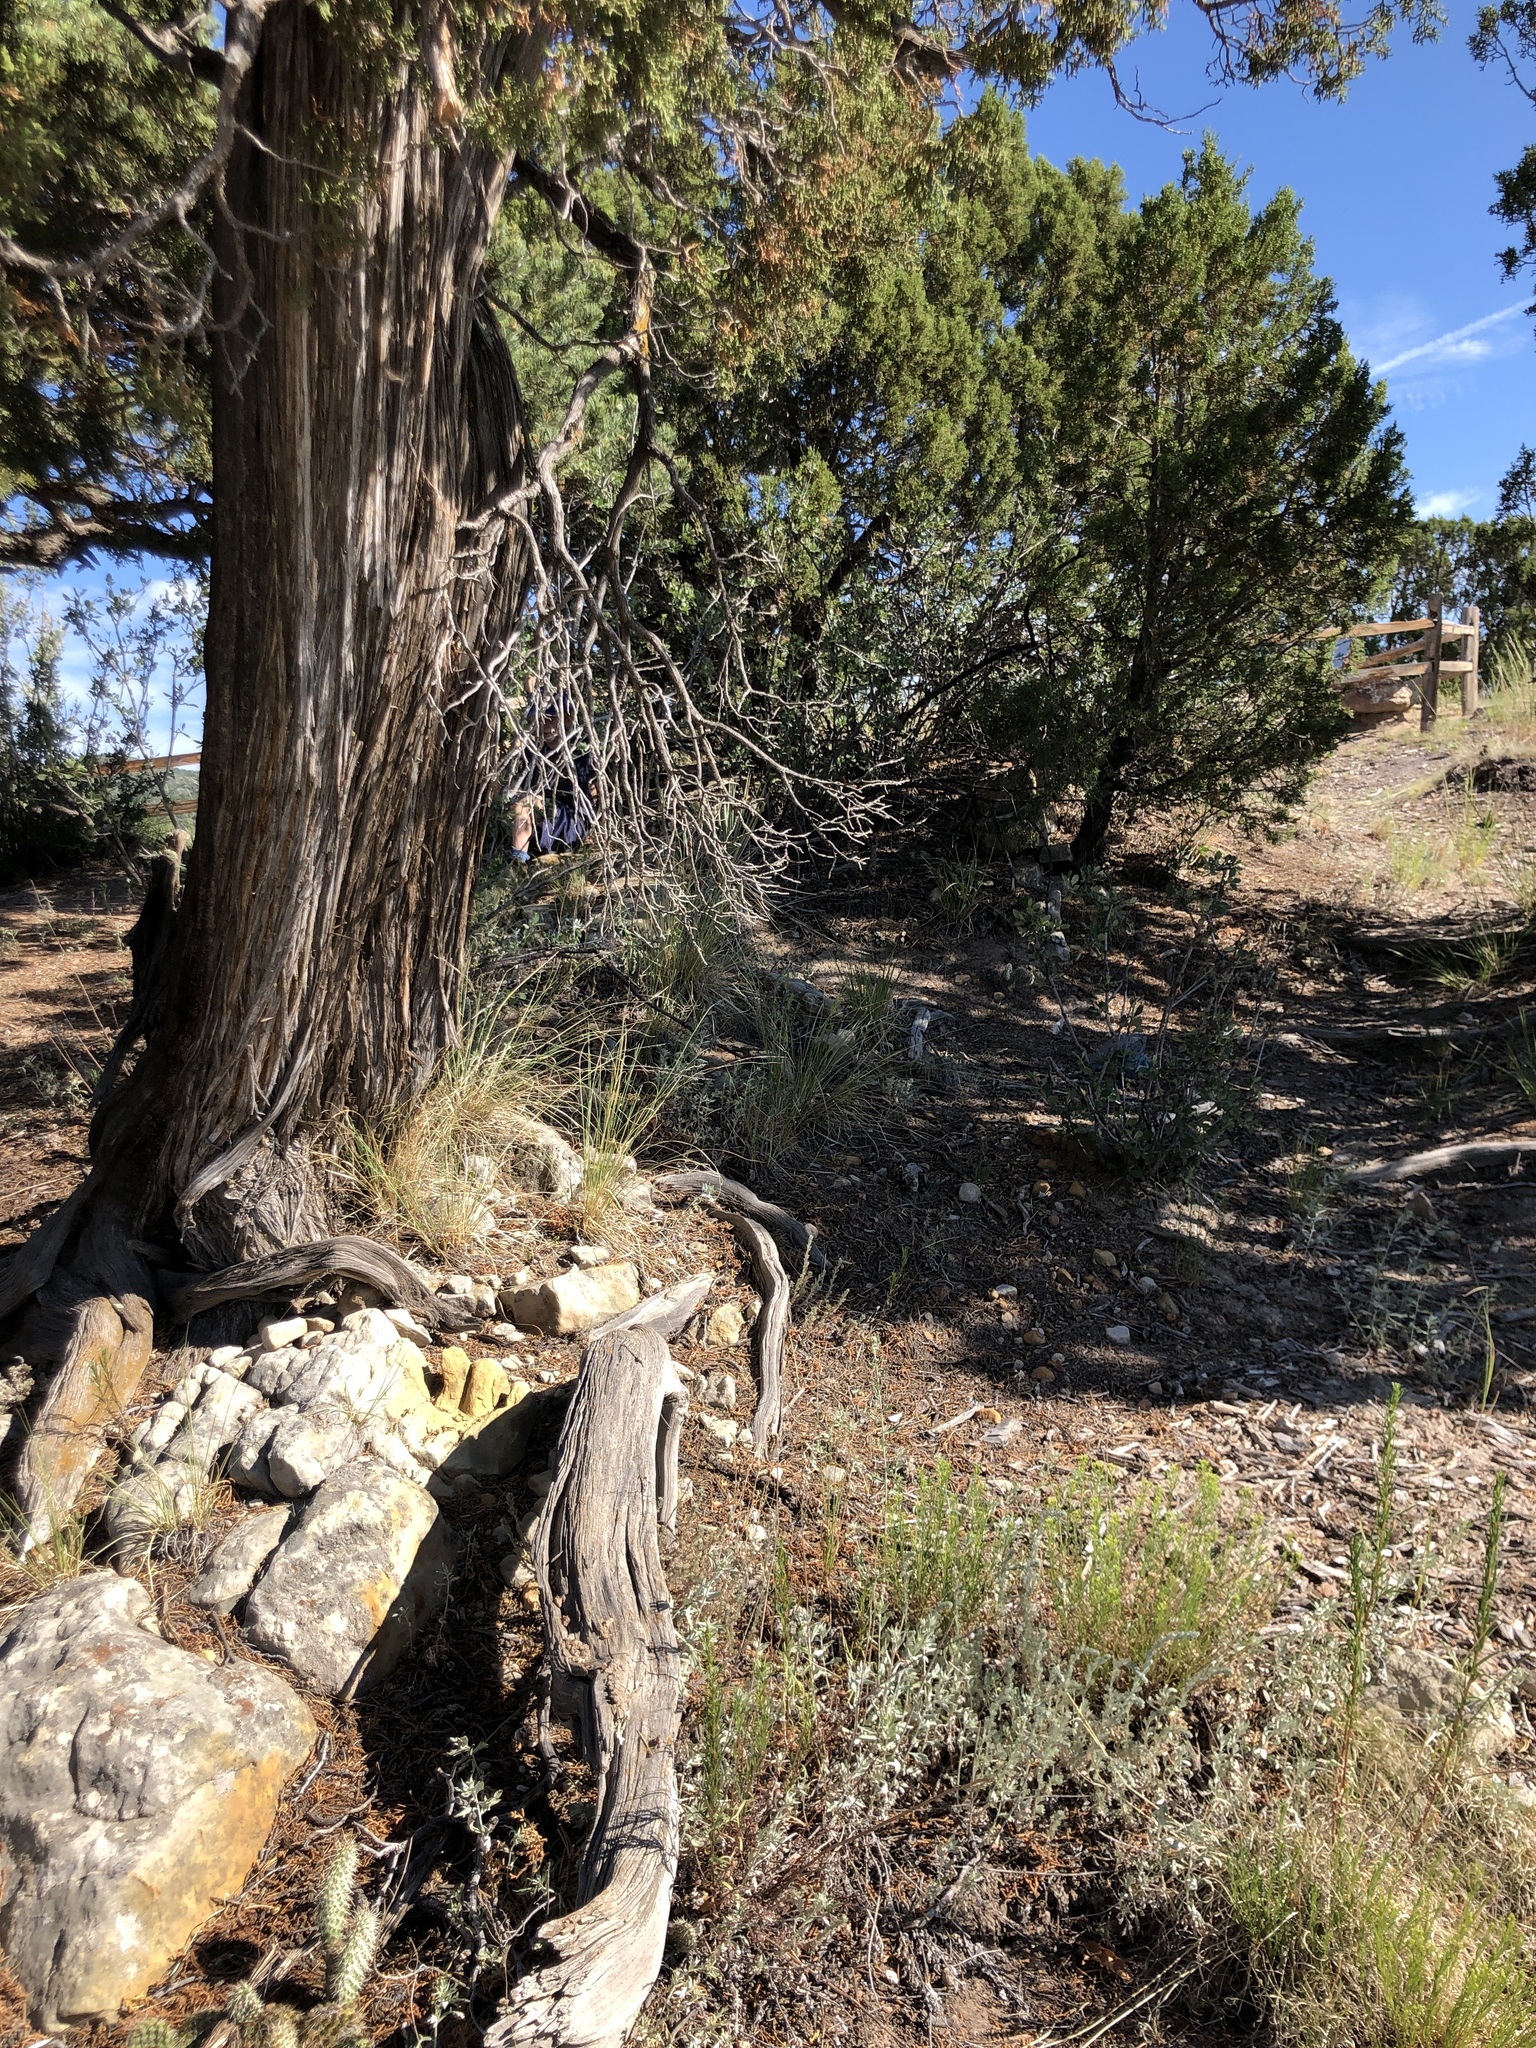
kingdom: Plantae
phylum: Tracheophyta
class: Pinopsida
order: Pinales
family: Cupressaceae
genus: Juniperus
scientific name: Juniperus scopulorum
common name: Rocky mountain juniper
